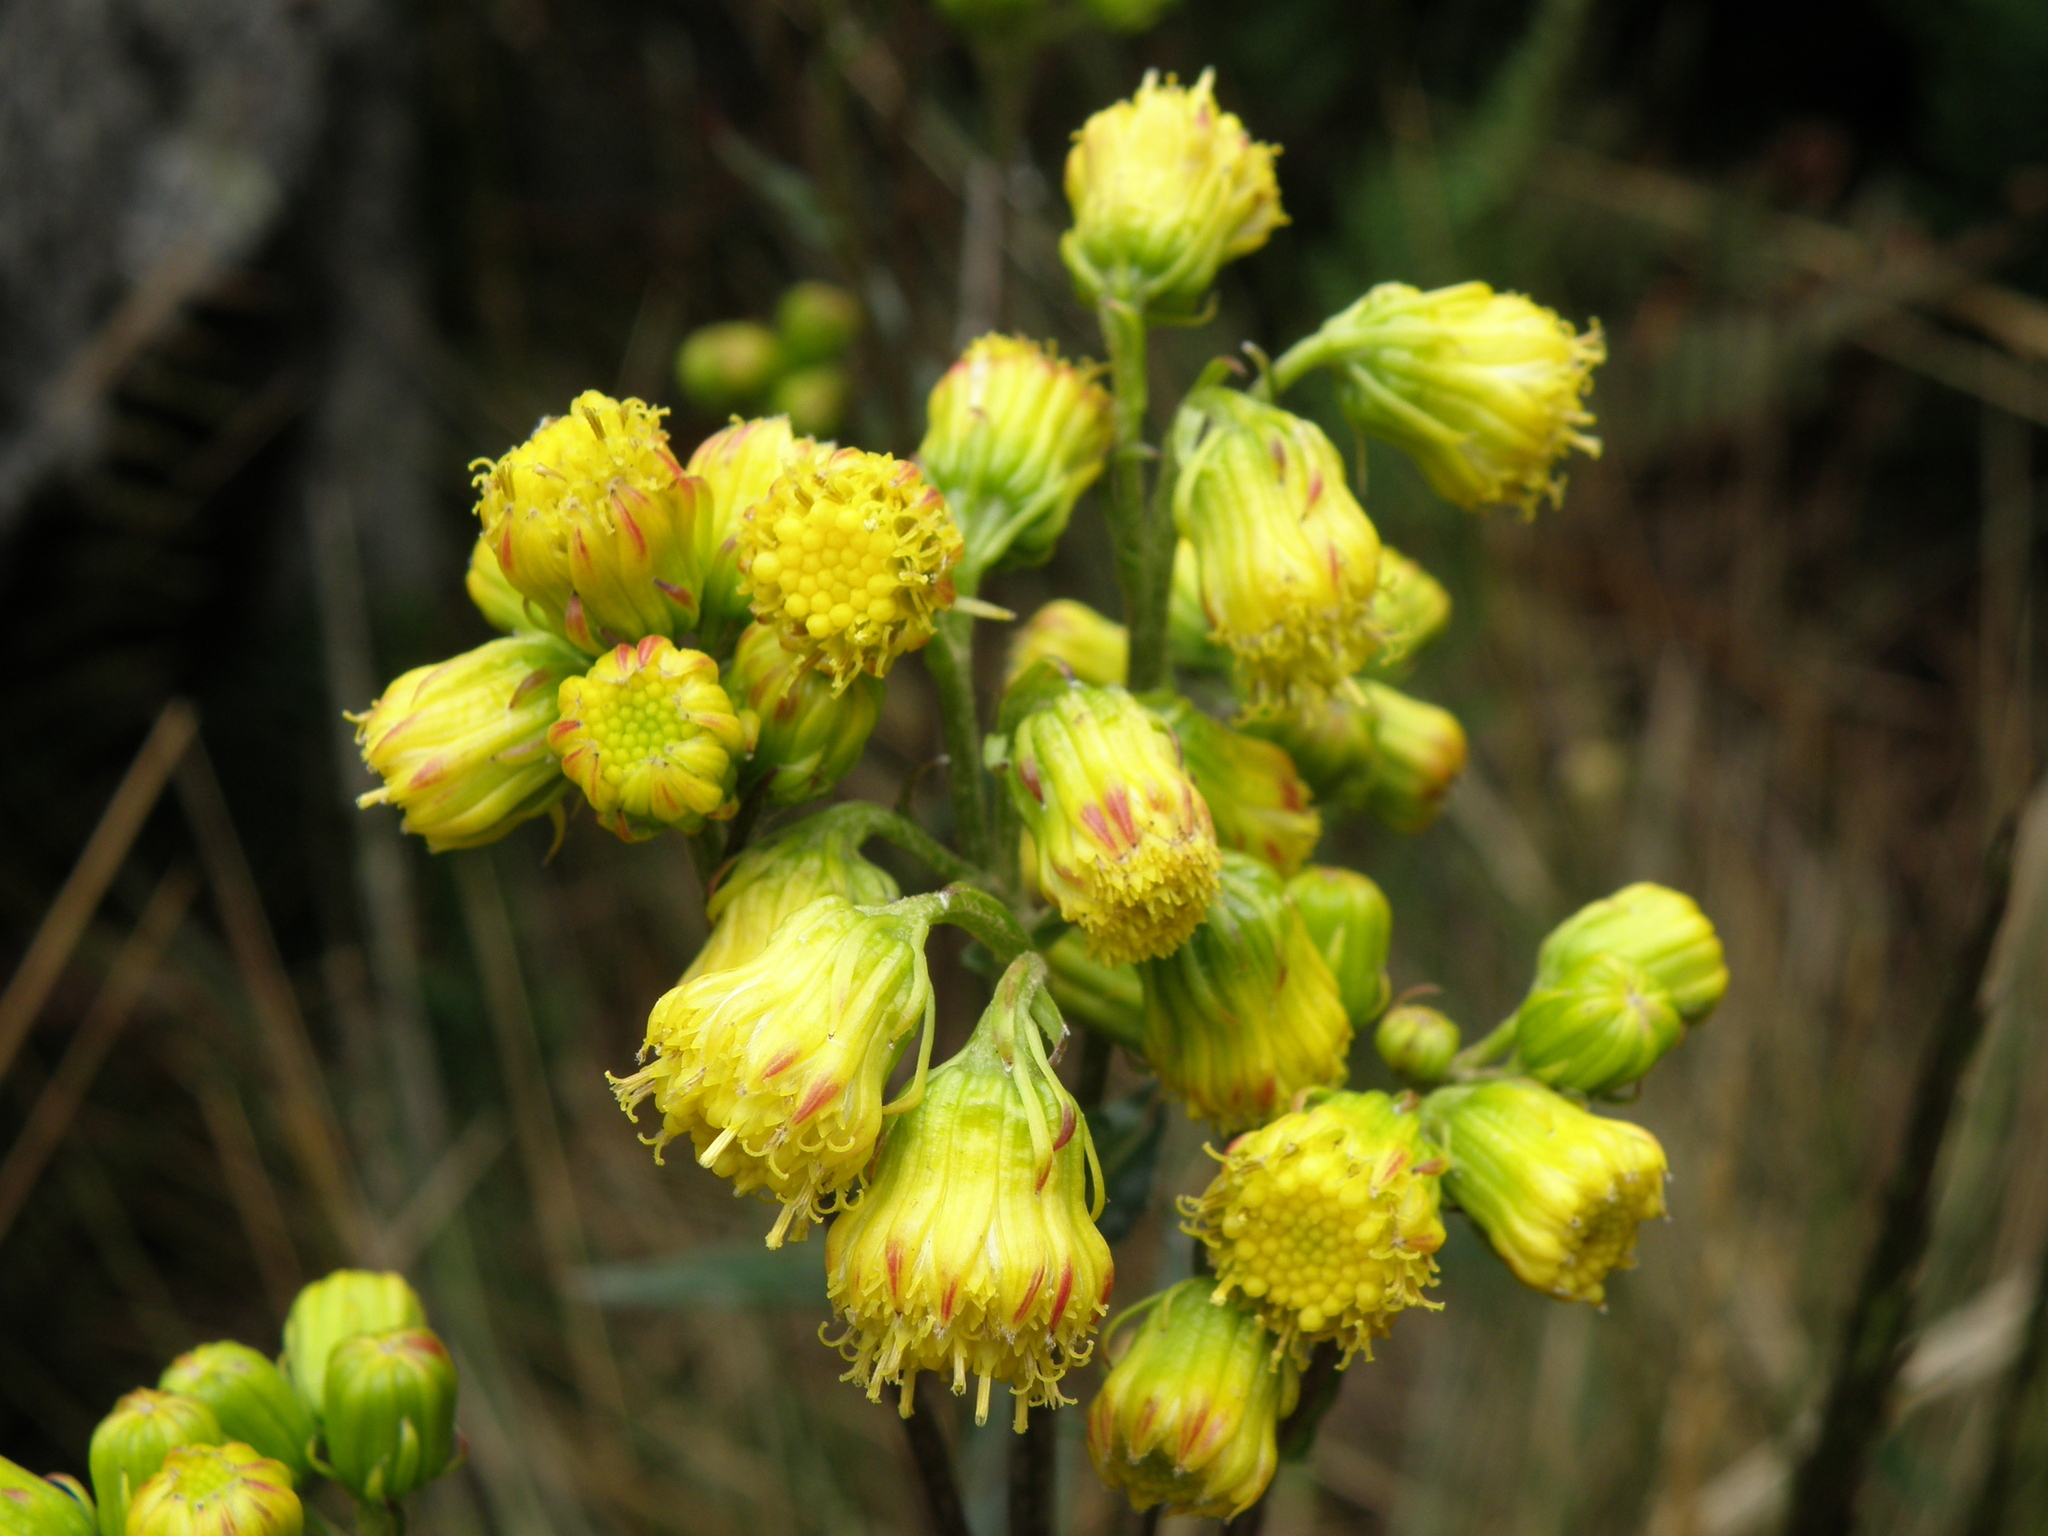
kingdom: Plantae
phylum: Tracheophyta
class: Magnoliopsida
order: Asterales
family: Asteraceae
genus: Senecio
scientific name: Senecio tephrosioides
